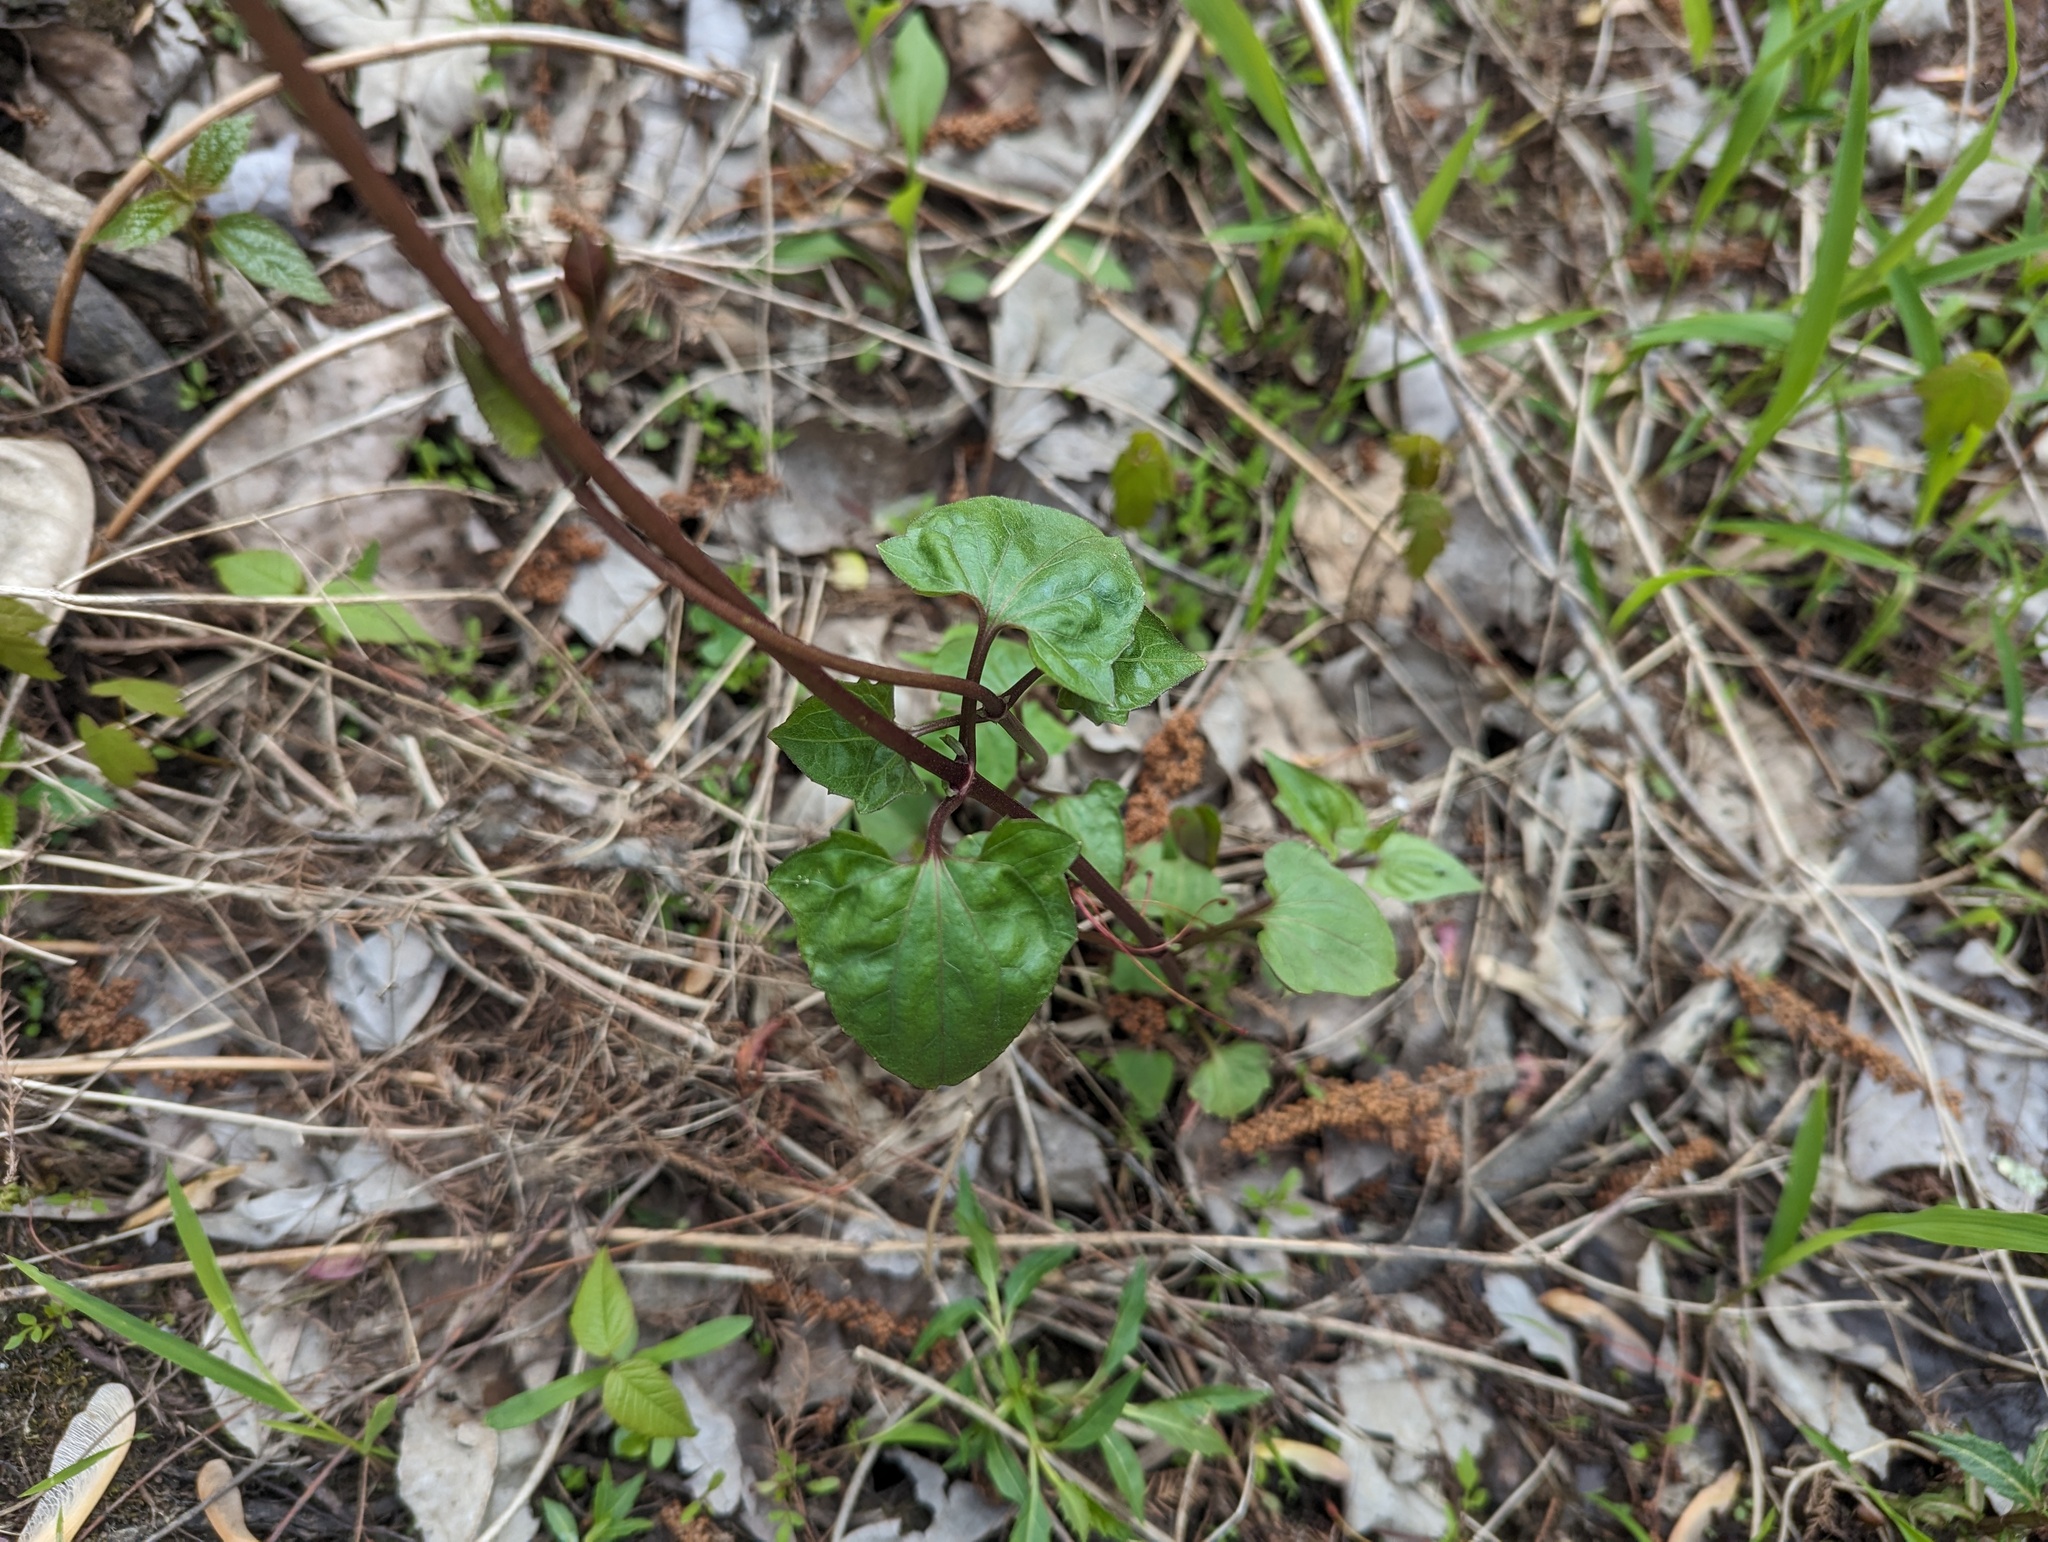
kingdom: Plantae
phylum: Tracheophyta
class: Magnoliopsida
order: Asterales
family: Asteraceae
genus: Mikania
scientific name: Mikania scandens
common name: Climbing hempvine
